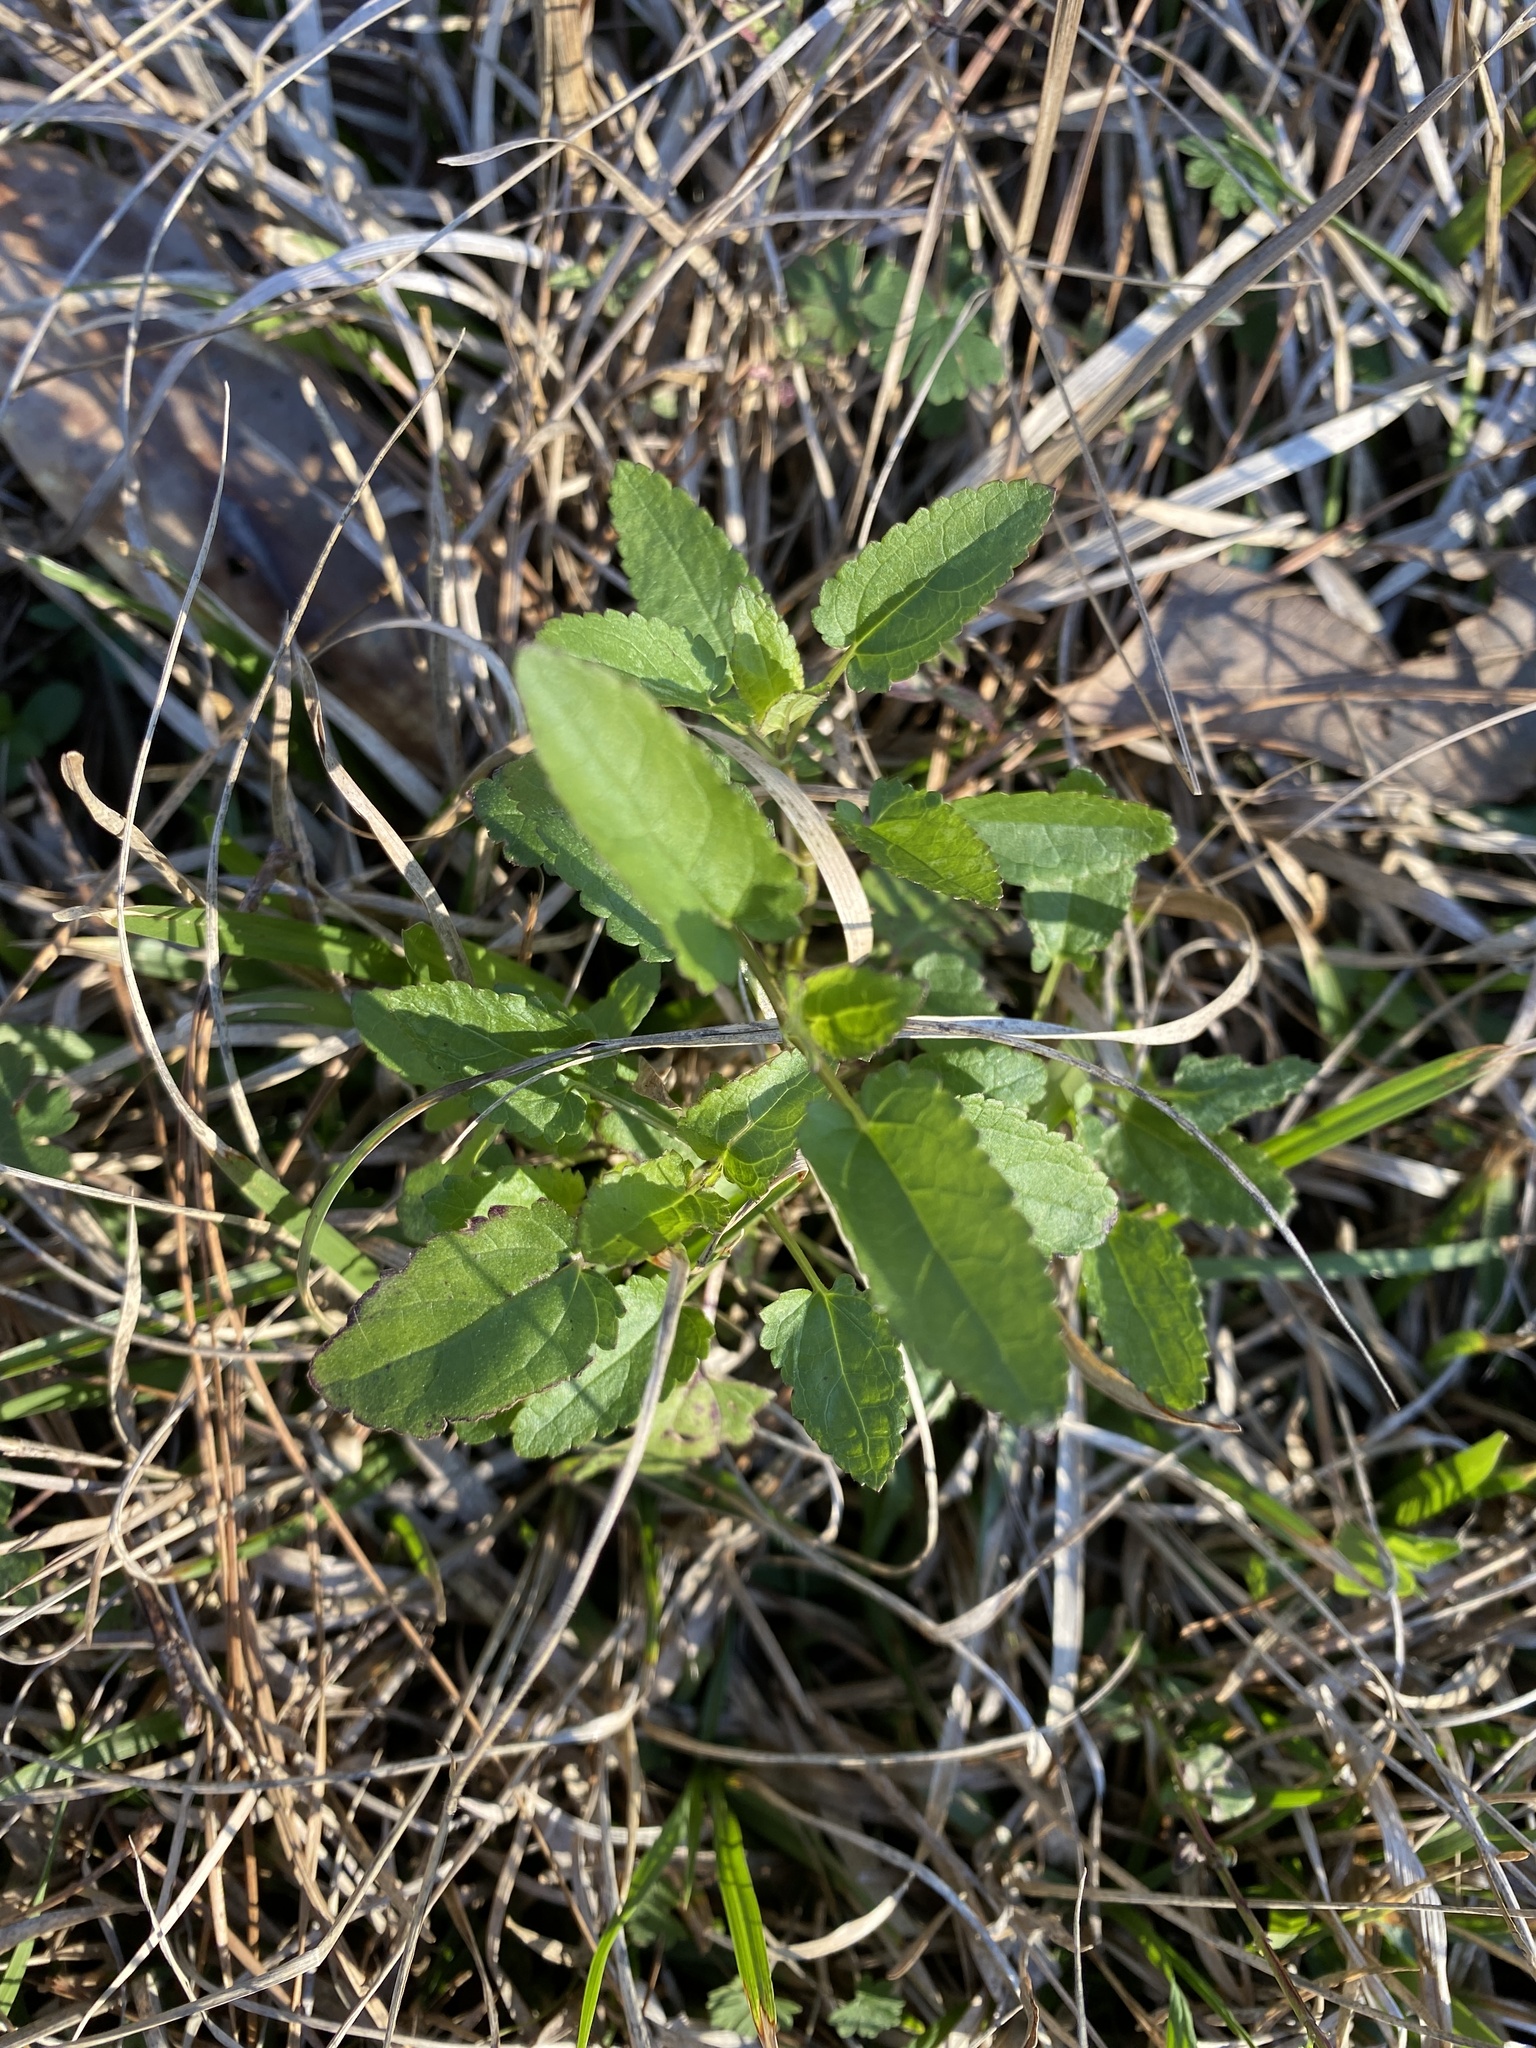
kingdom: Plantae
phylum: Tracheophyta
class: Magnoliopsida
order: Lamiales
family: Lamiaceae
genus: Stachys
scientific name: Stachys floridana
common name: Florida betony
